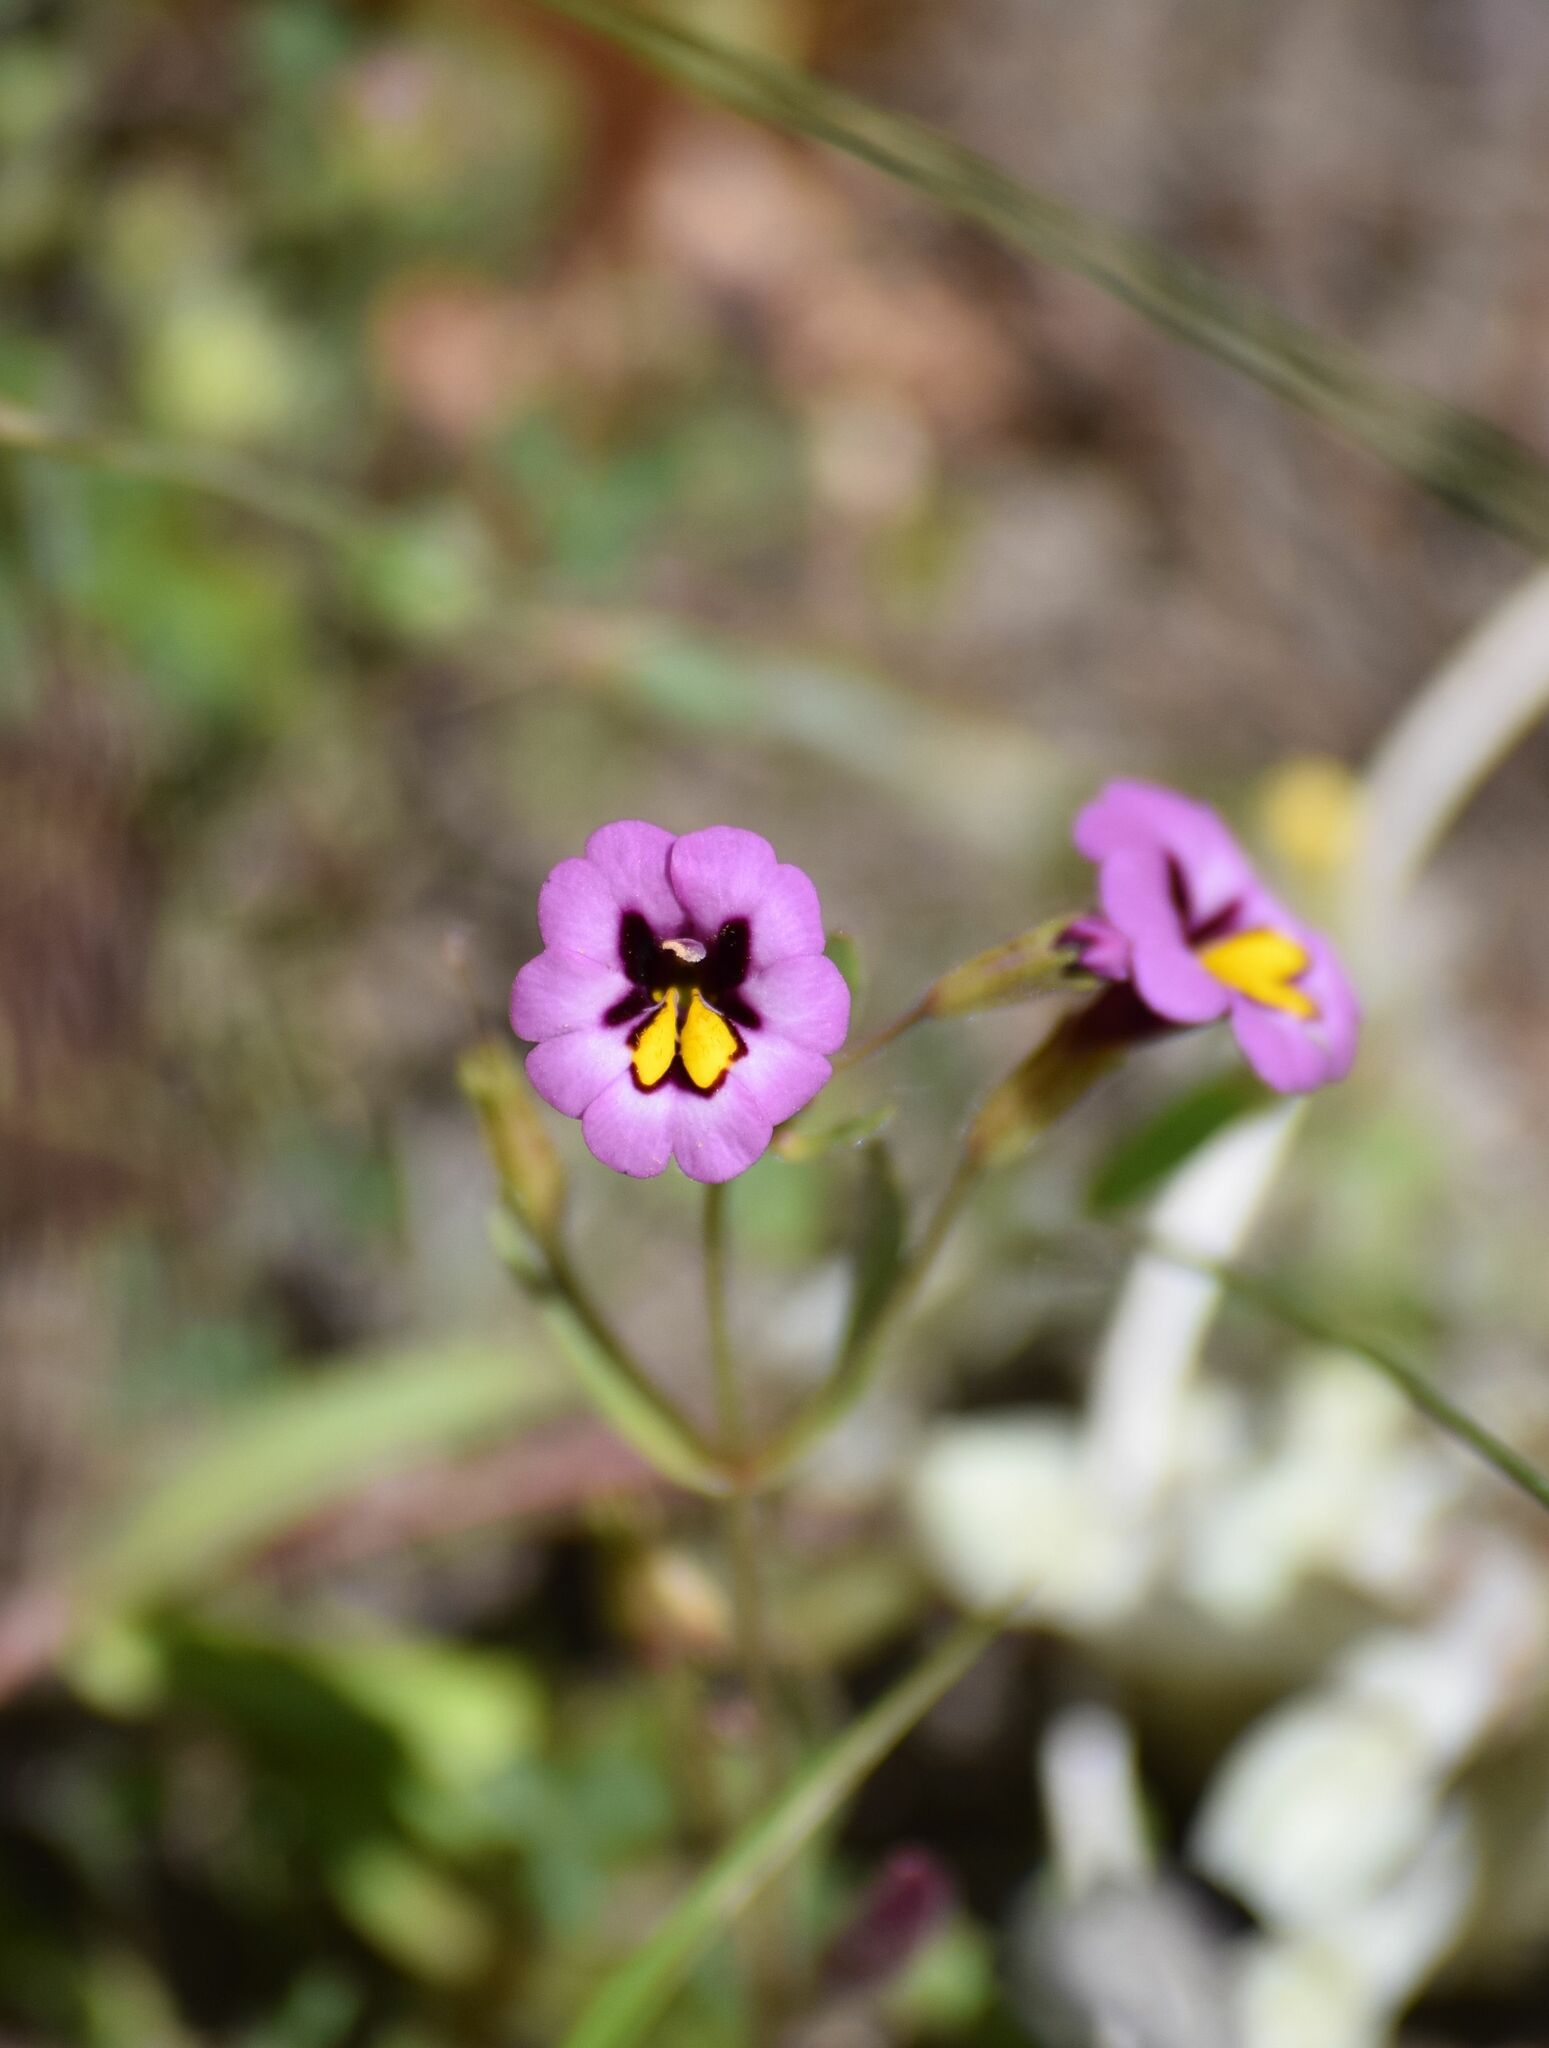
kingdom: Plantae
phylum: Tracheophyta
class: Magnoliopsida
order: Lamiales
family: Phrymaceae
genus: Erythranthe
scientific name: Erythranthe filicaulis
